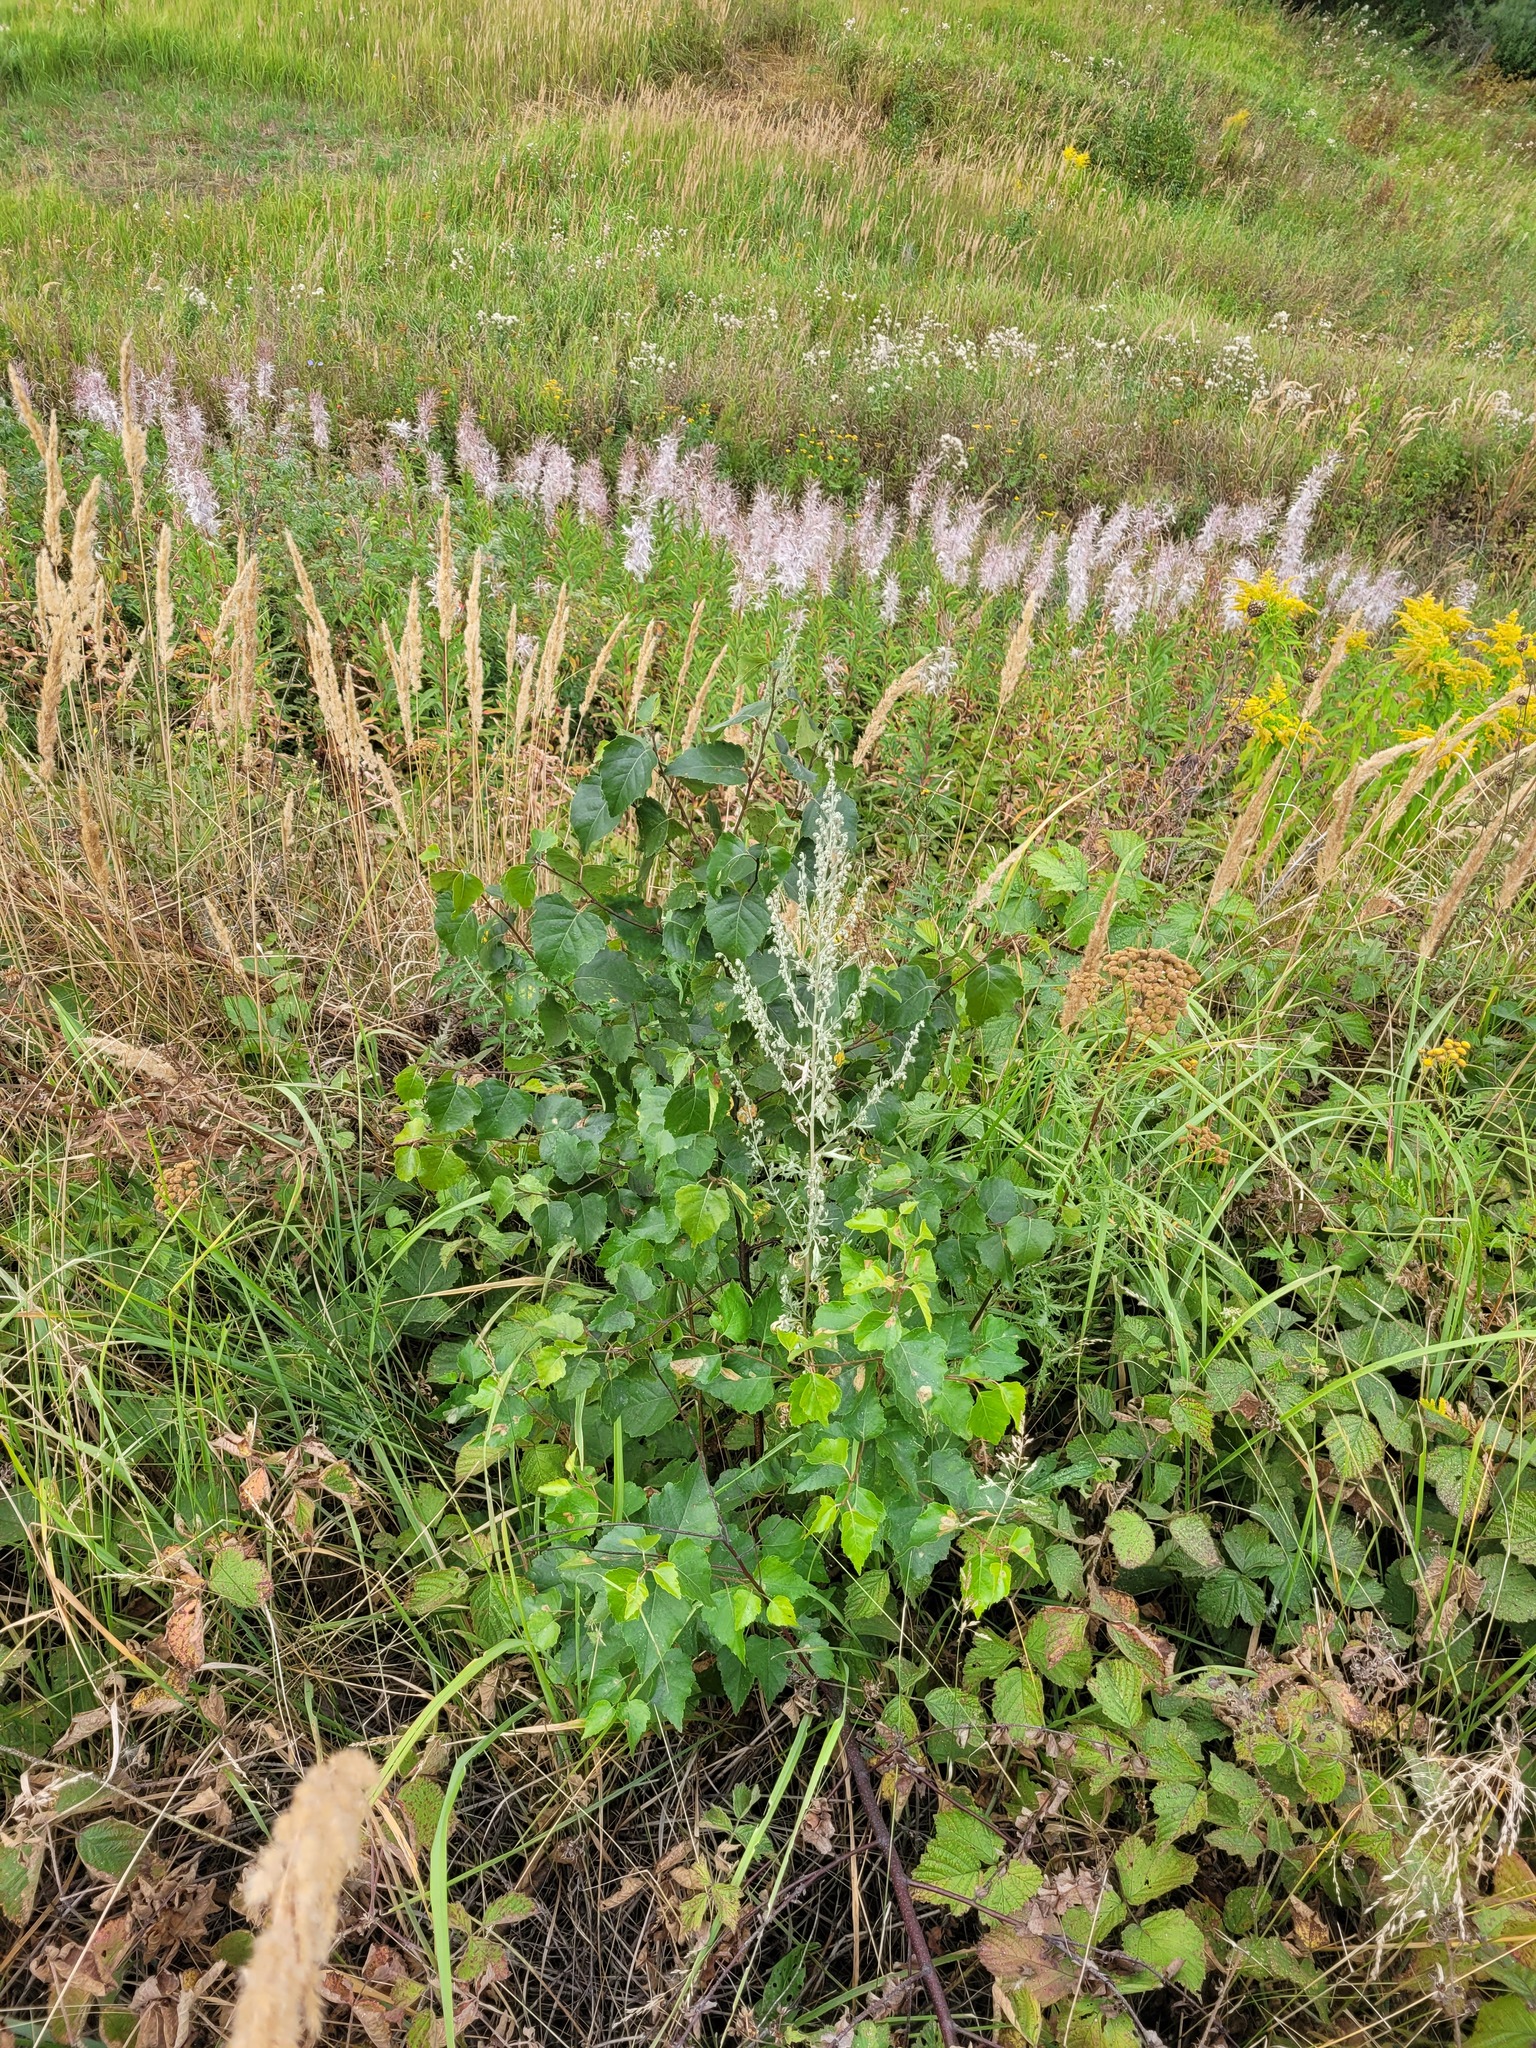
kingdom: Plantae
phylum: Tracheophyta
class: Magnoliopsida
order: Fagales
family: Betulaceae
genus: Betula
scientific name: Betula pendula
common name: Silver birch
